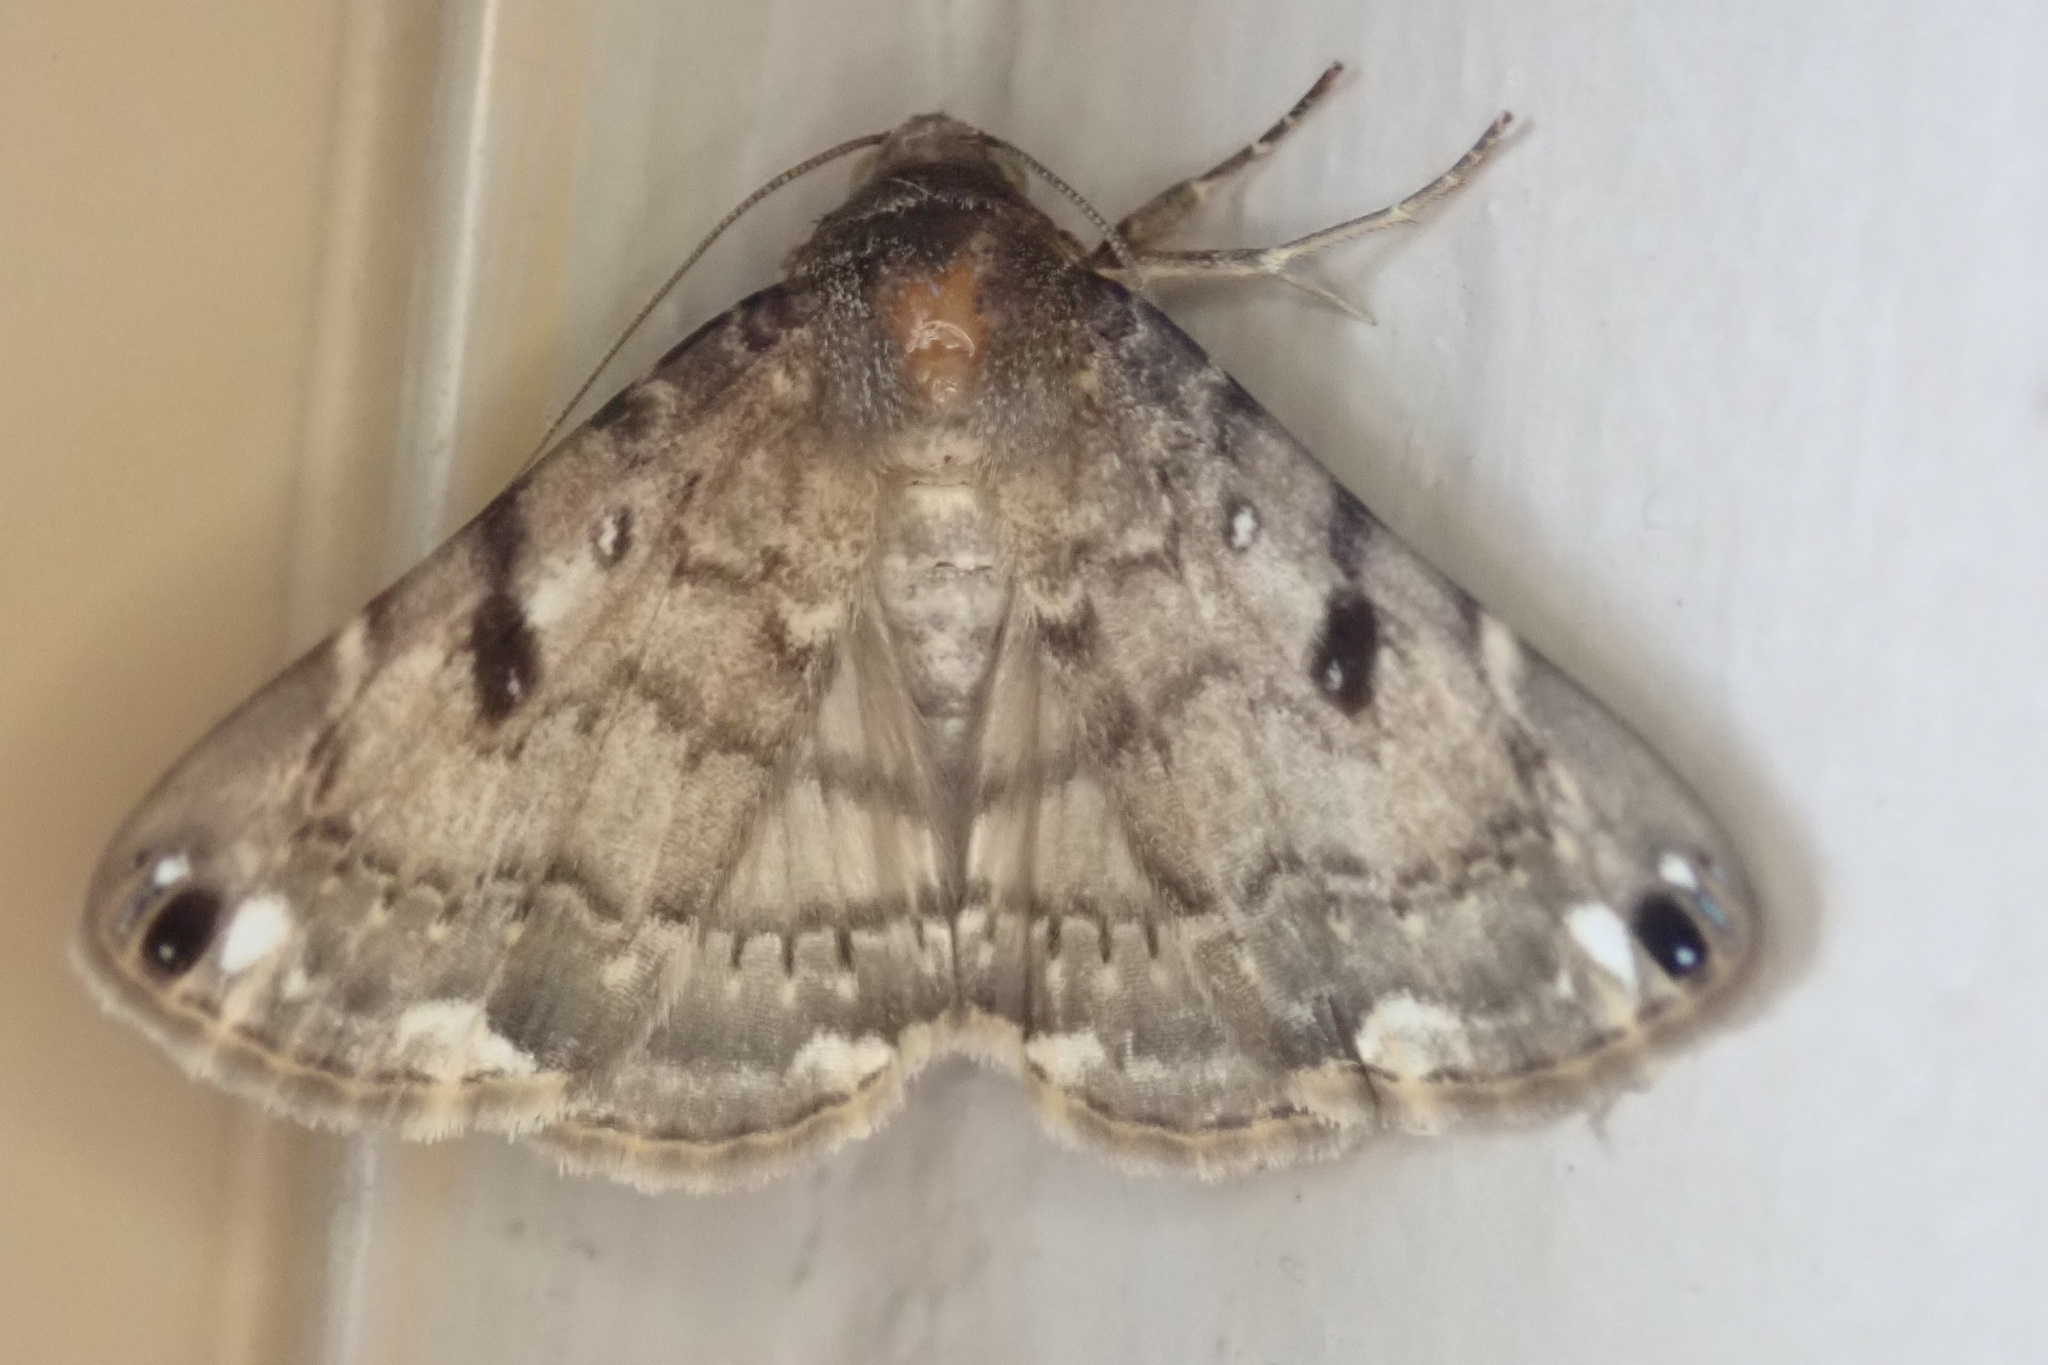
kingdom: Animalia
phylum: Arthropoda
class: Insecta
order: Lepidoptera
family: Erebidae
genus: Bareia
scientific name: Bareia incidens
